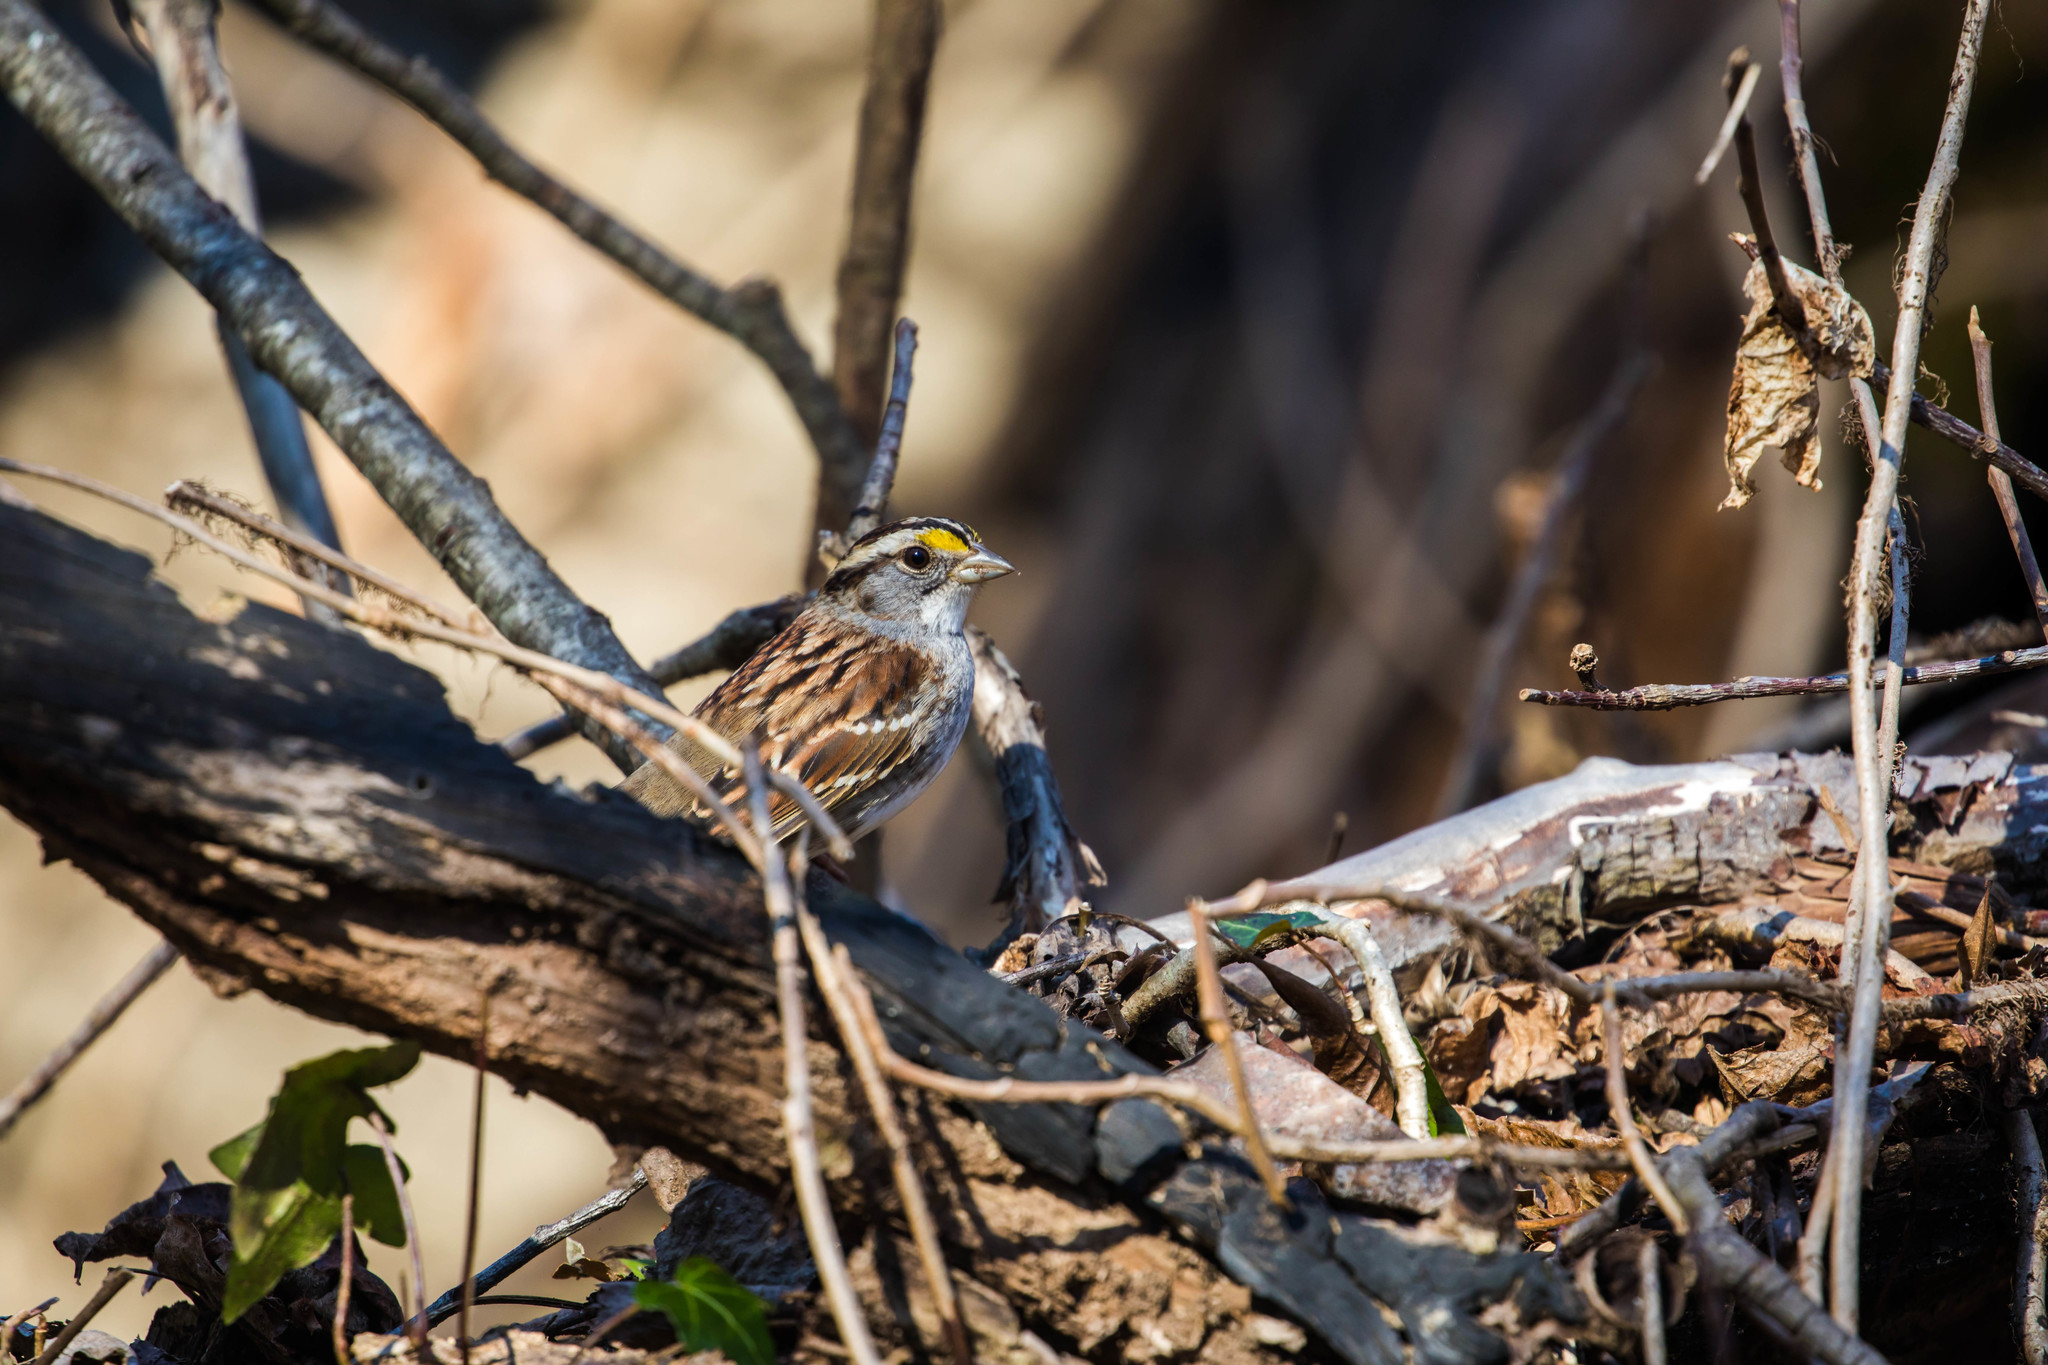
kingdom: Animalia
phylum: Chordata
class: Aves
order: Passeriformes
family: Passerellidae
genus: Zonotrichia
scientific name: Zonotrichia albicollis
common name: White-throated sparrow
